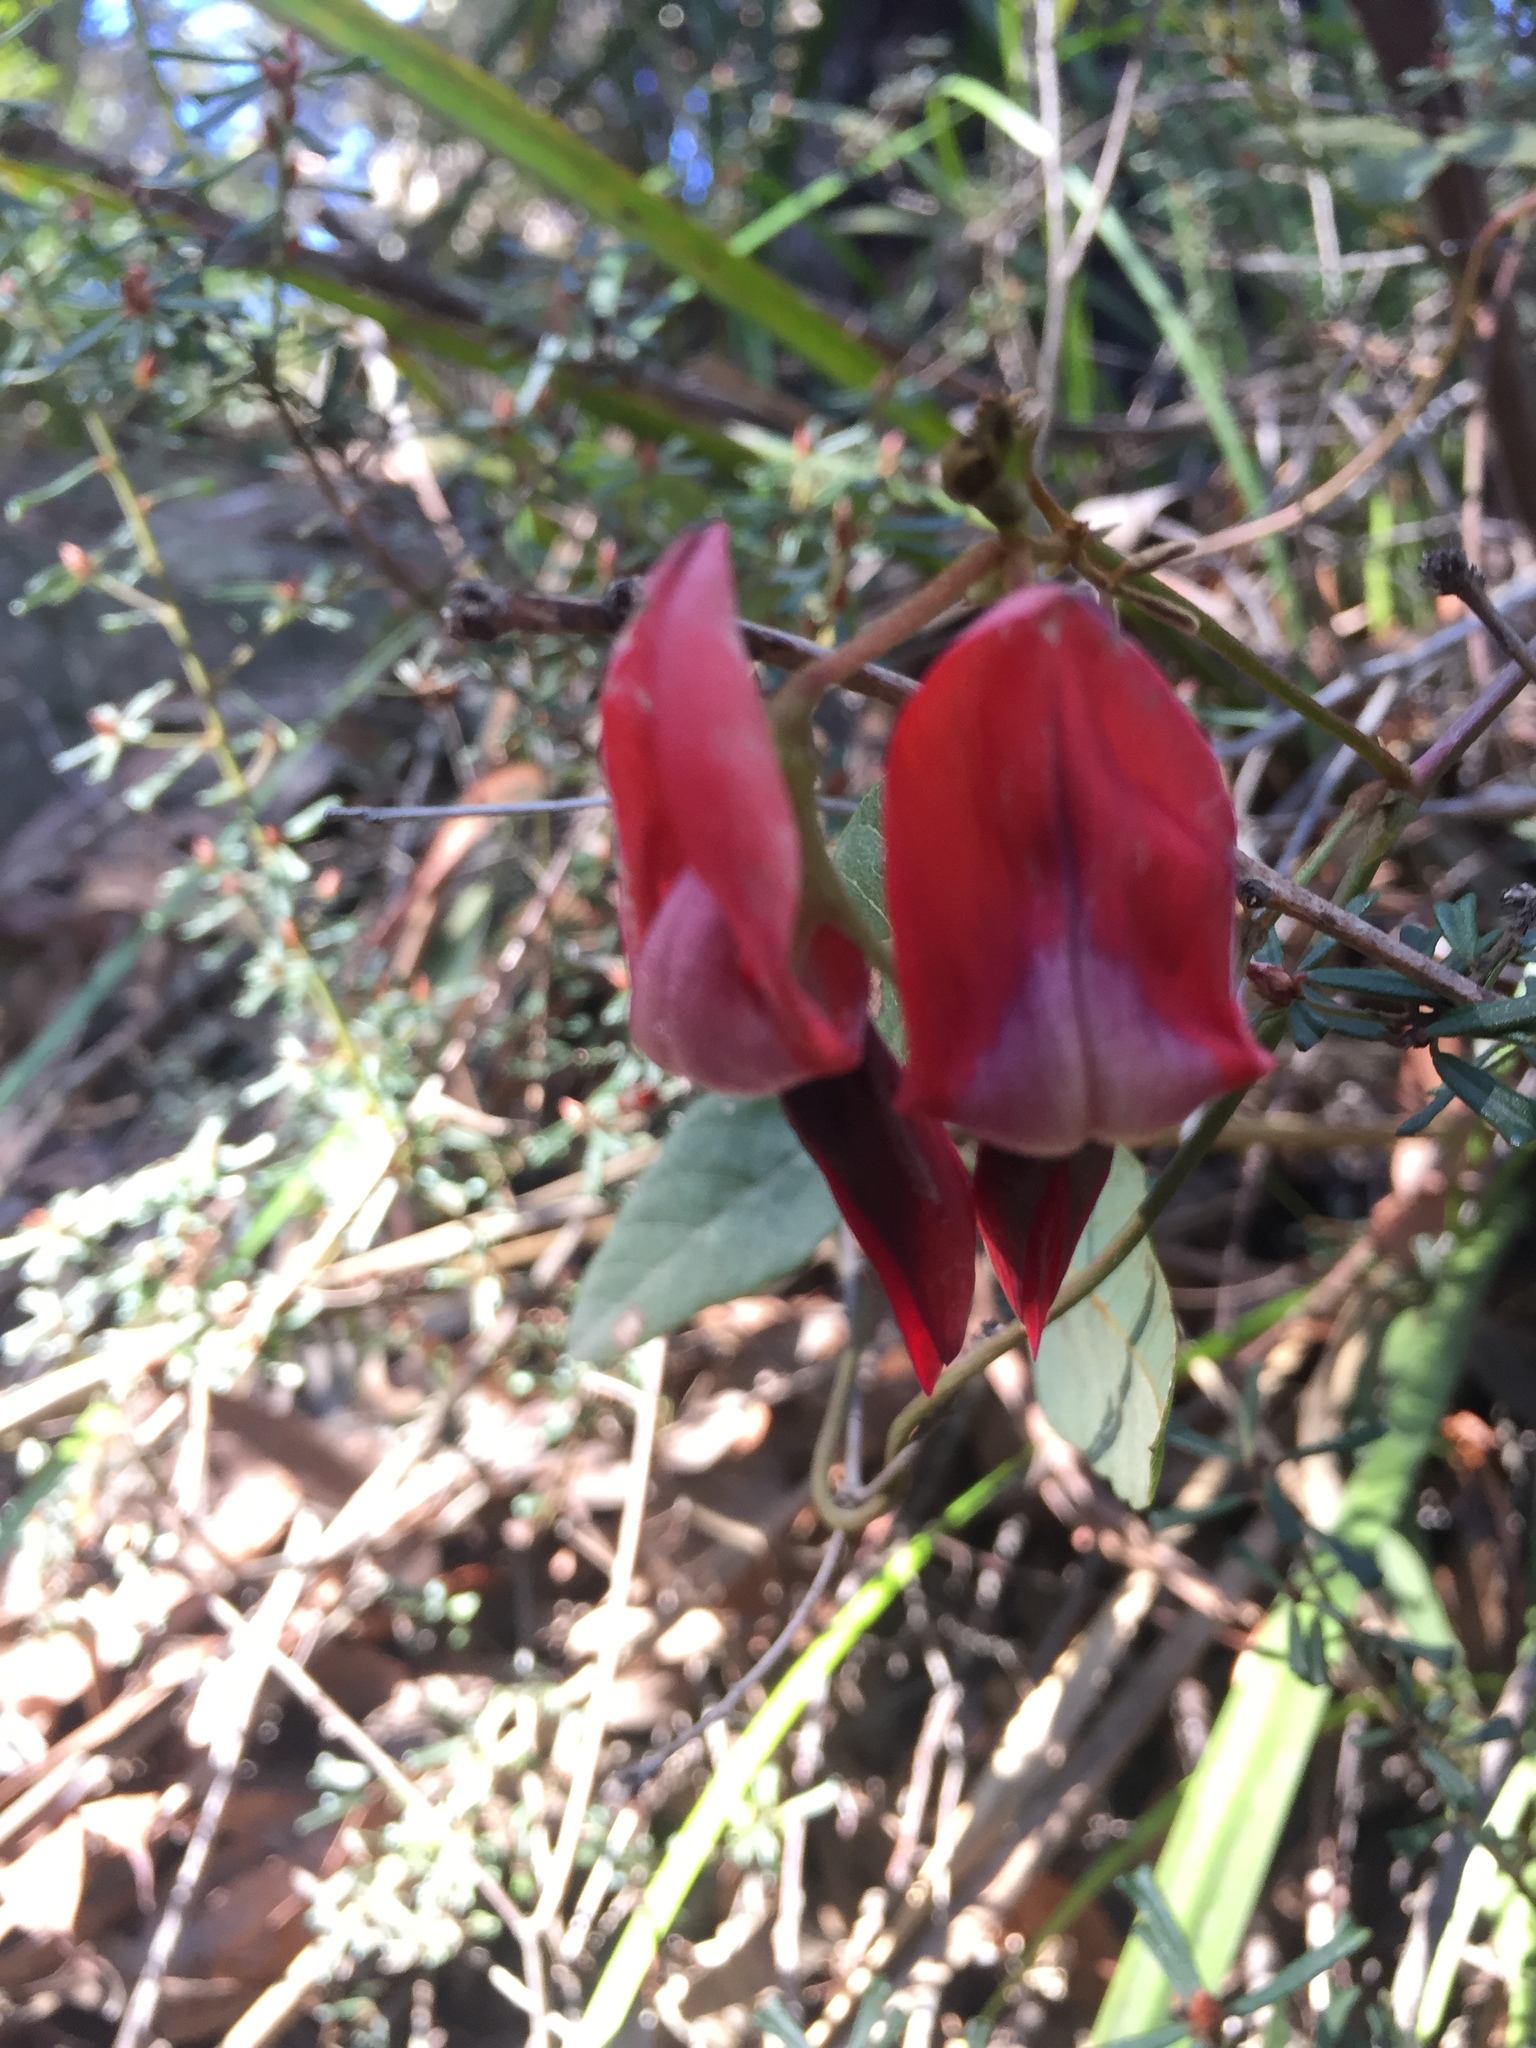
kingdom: Plantae
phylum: Tracheophyta
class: Magnoliopsida
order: Fabales
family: Fabaceae
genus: Kennedia
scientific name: Kennedia rubicunda
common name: Red kennedy-pea
